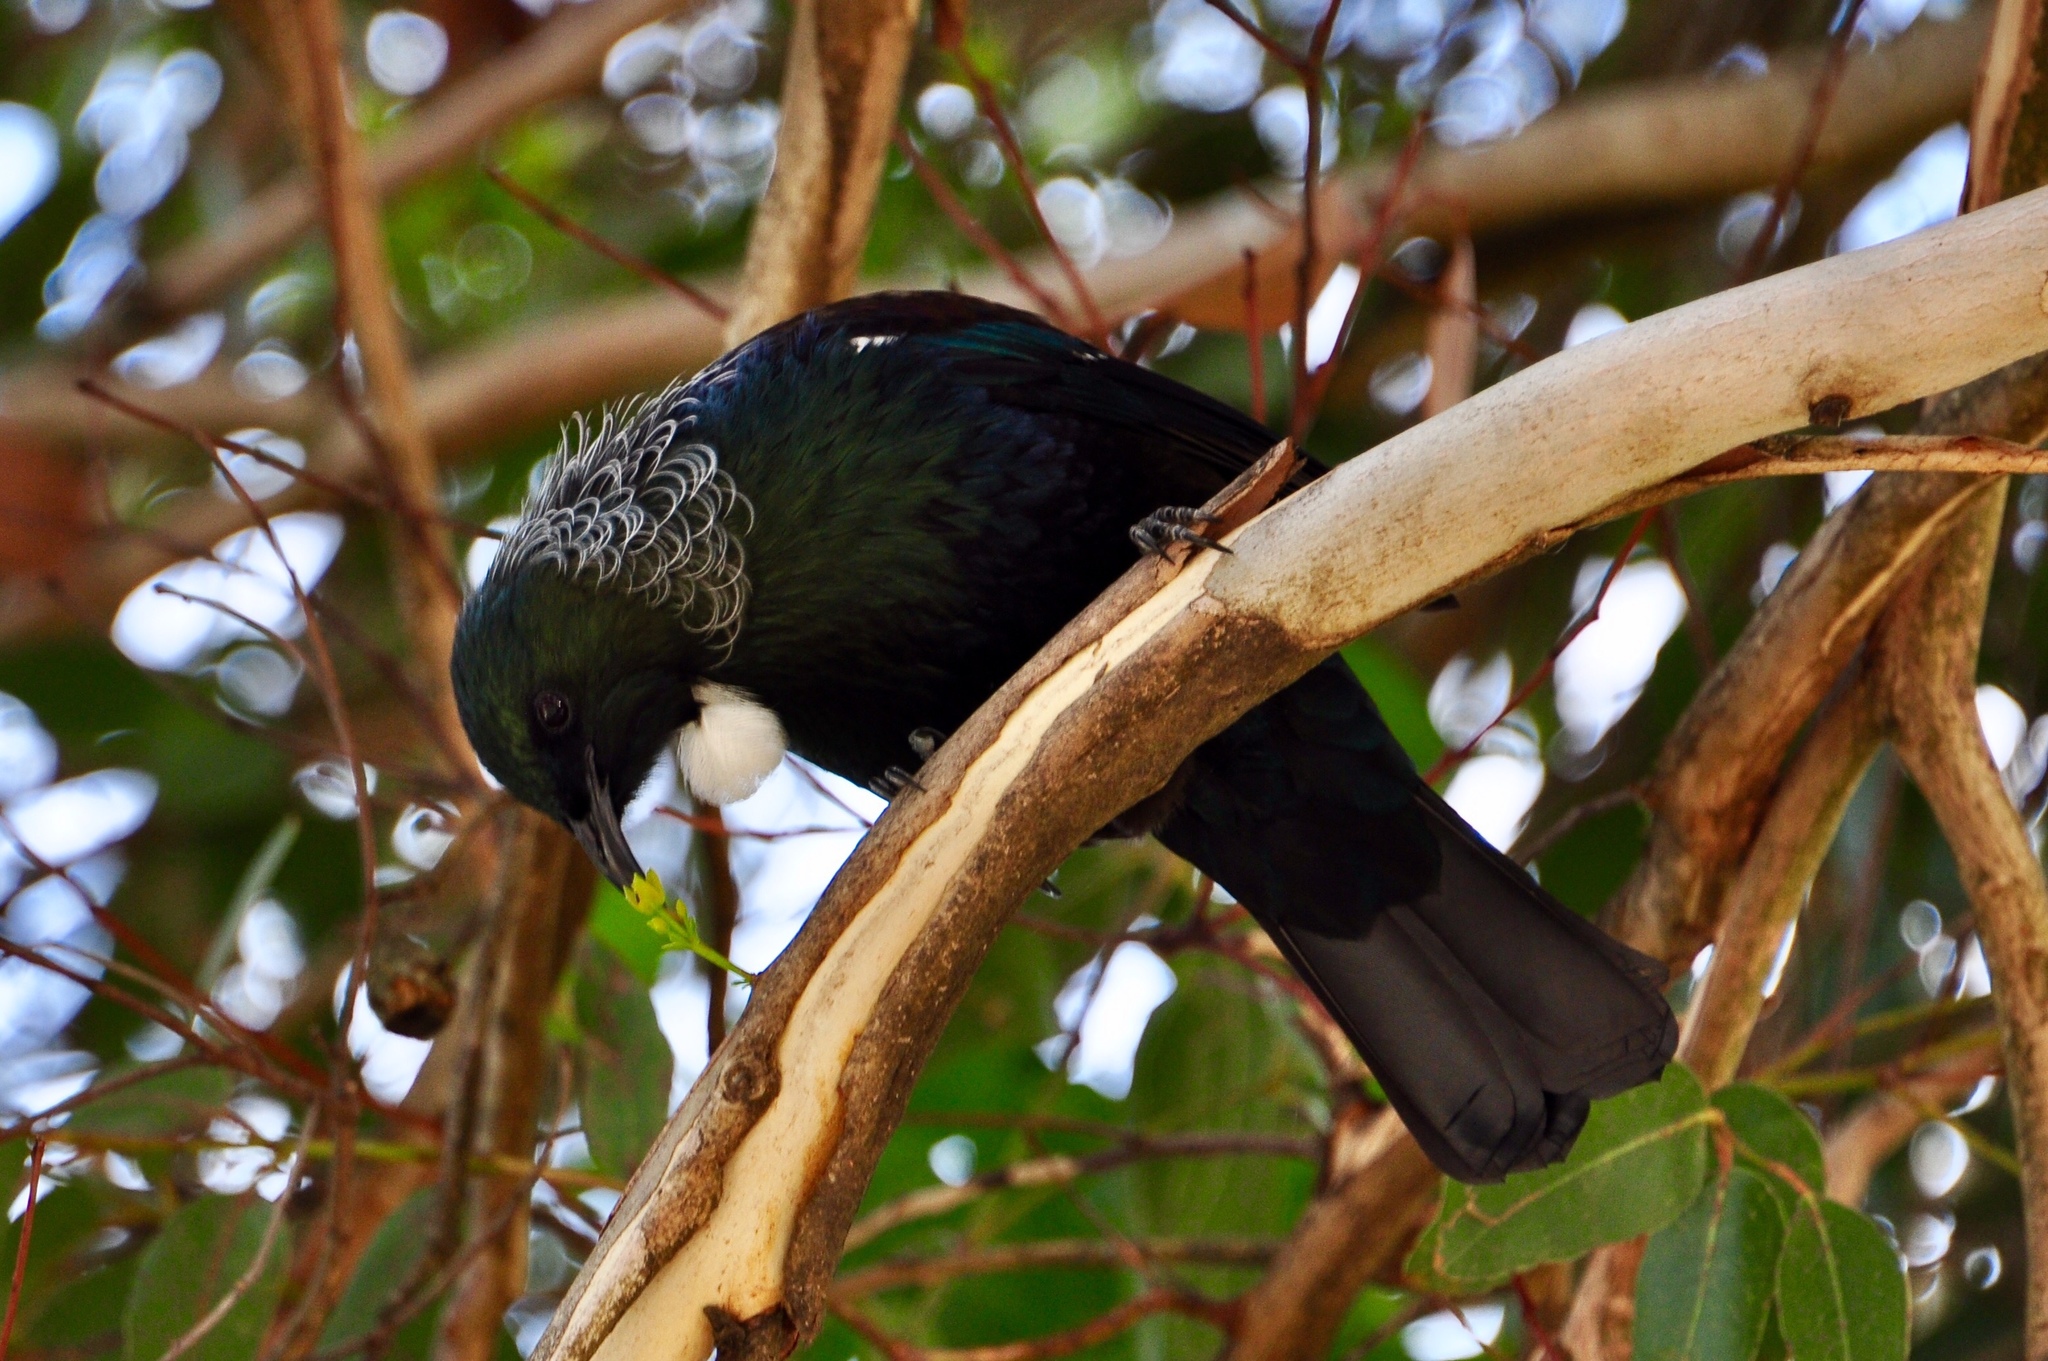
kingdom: Animalia
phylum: Chordata
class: Aves
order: Passeriformes
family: Meliphagidae
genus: Prosthemadera
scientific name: Prosthemadera novaeseelandiae
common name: Tui
